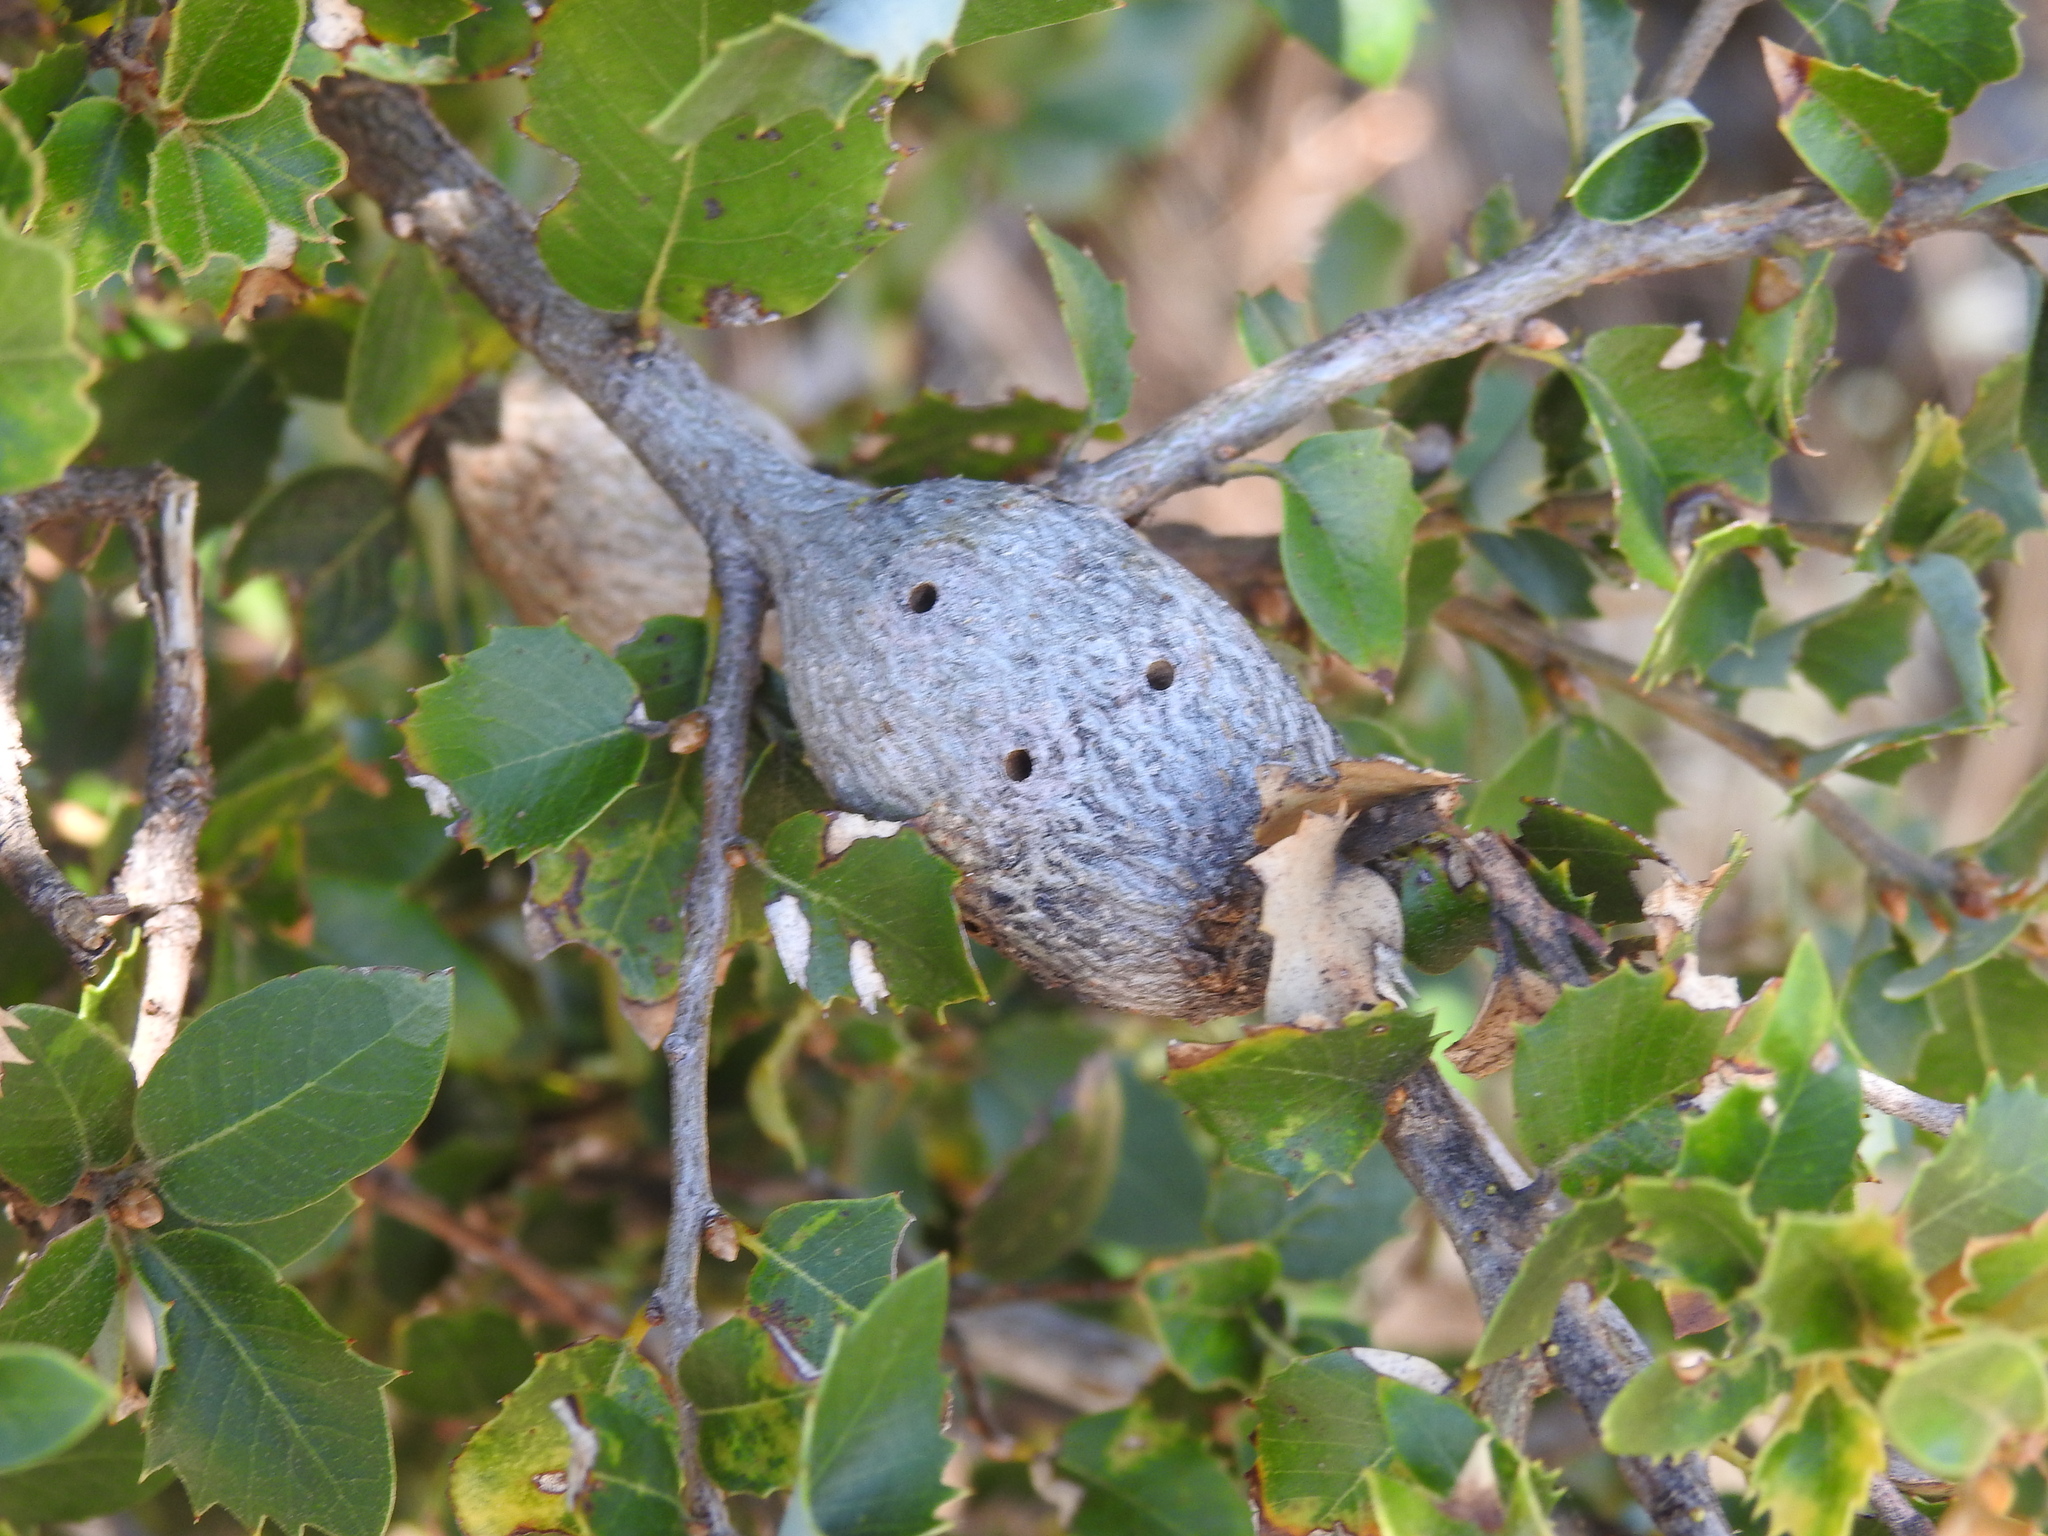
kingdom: Animalia
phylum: Arthropoda
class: Insecta
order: Hymenoptera
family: Cynipidae
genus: Disholcaspis
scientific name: Disholcaspis spectabilis
